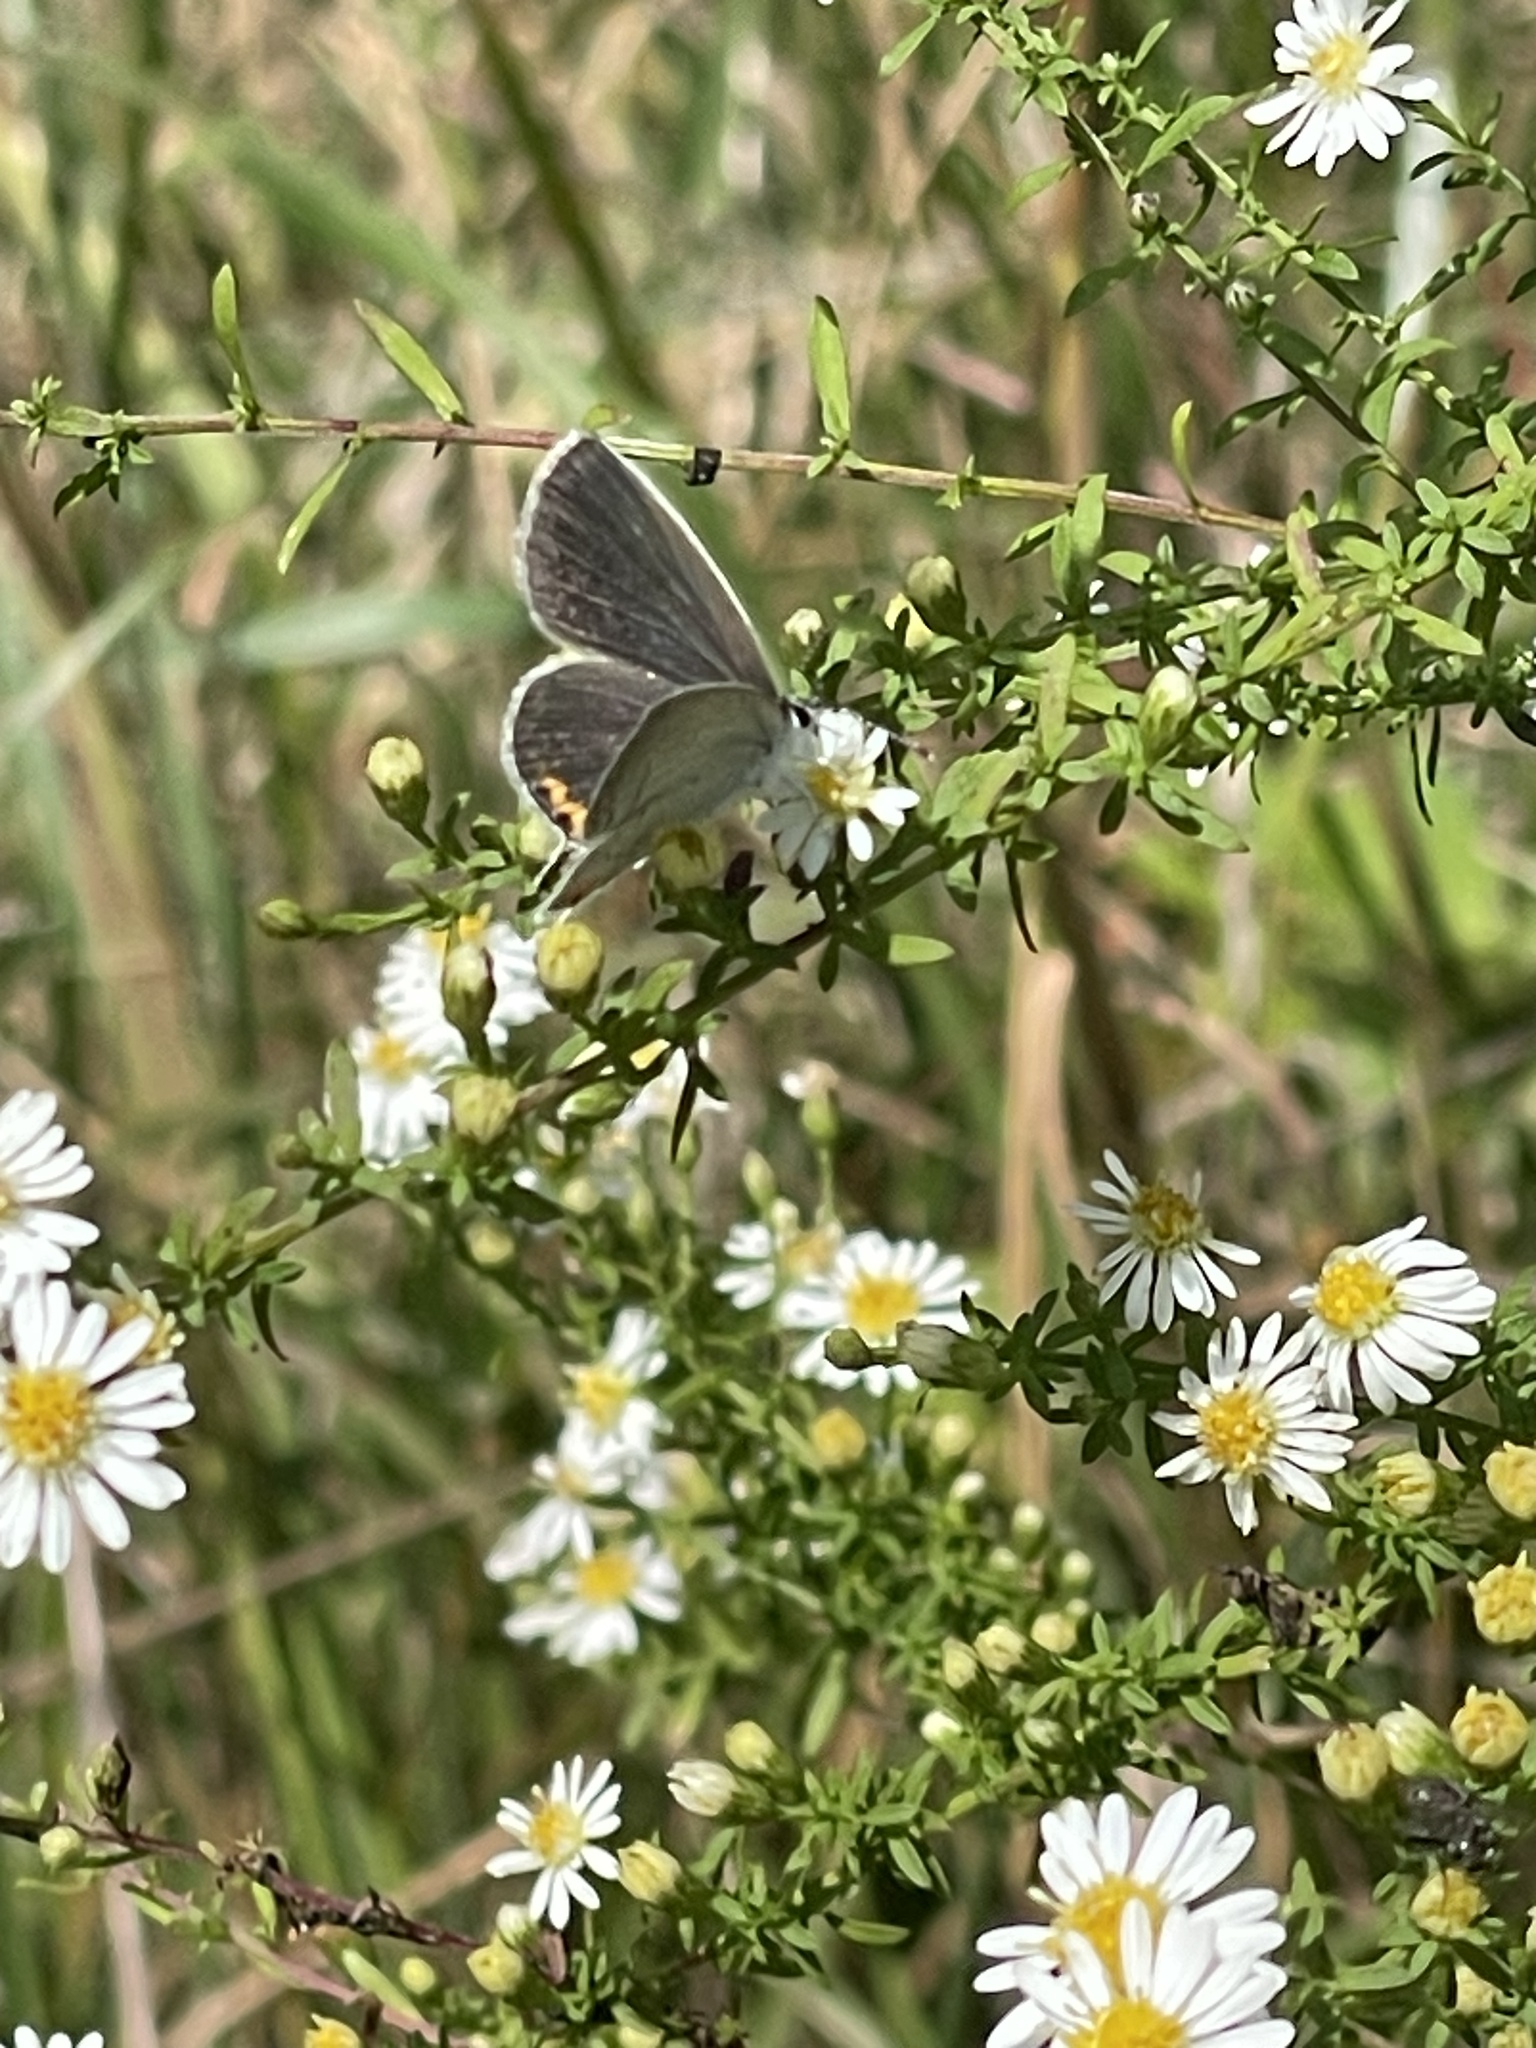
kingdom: Animalia
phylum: Arthropoda
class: Insecta
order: Lepidoptera
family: Lycaenidae
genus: Elkalyce
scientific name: Elkalyce comyntas
